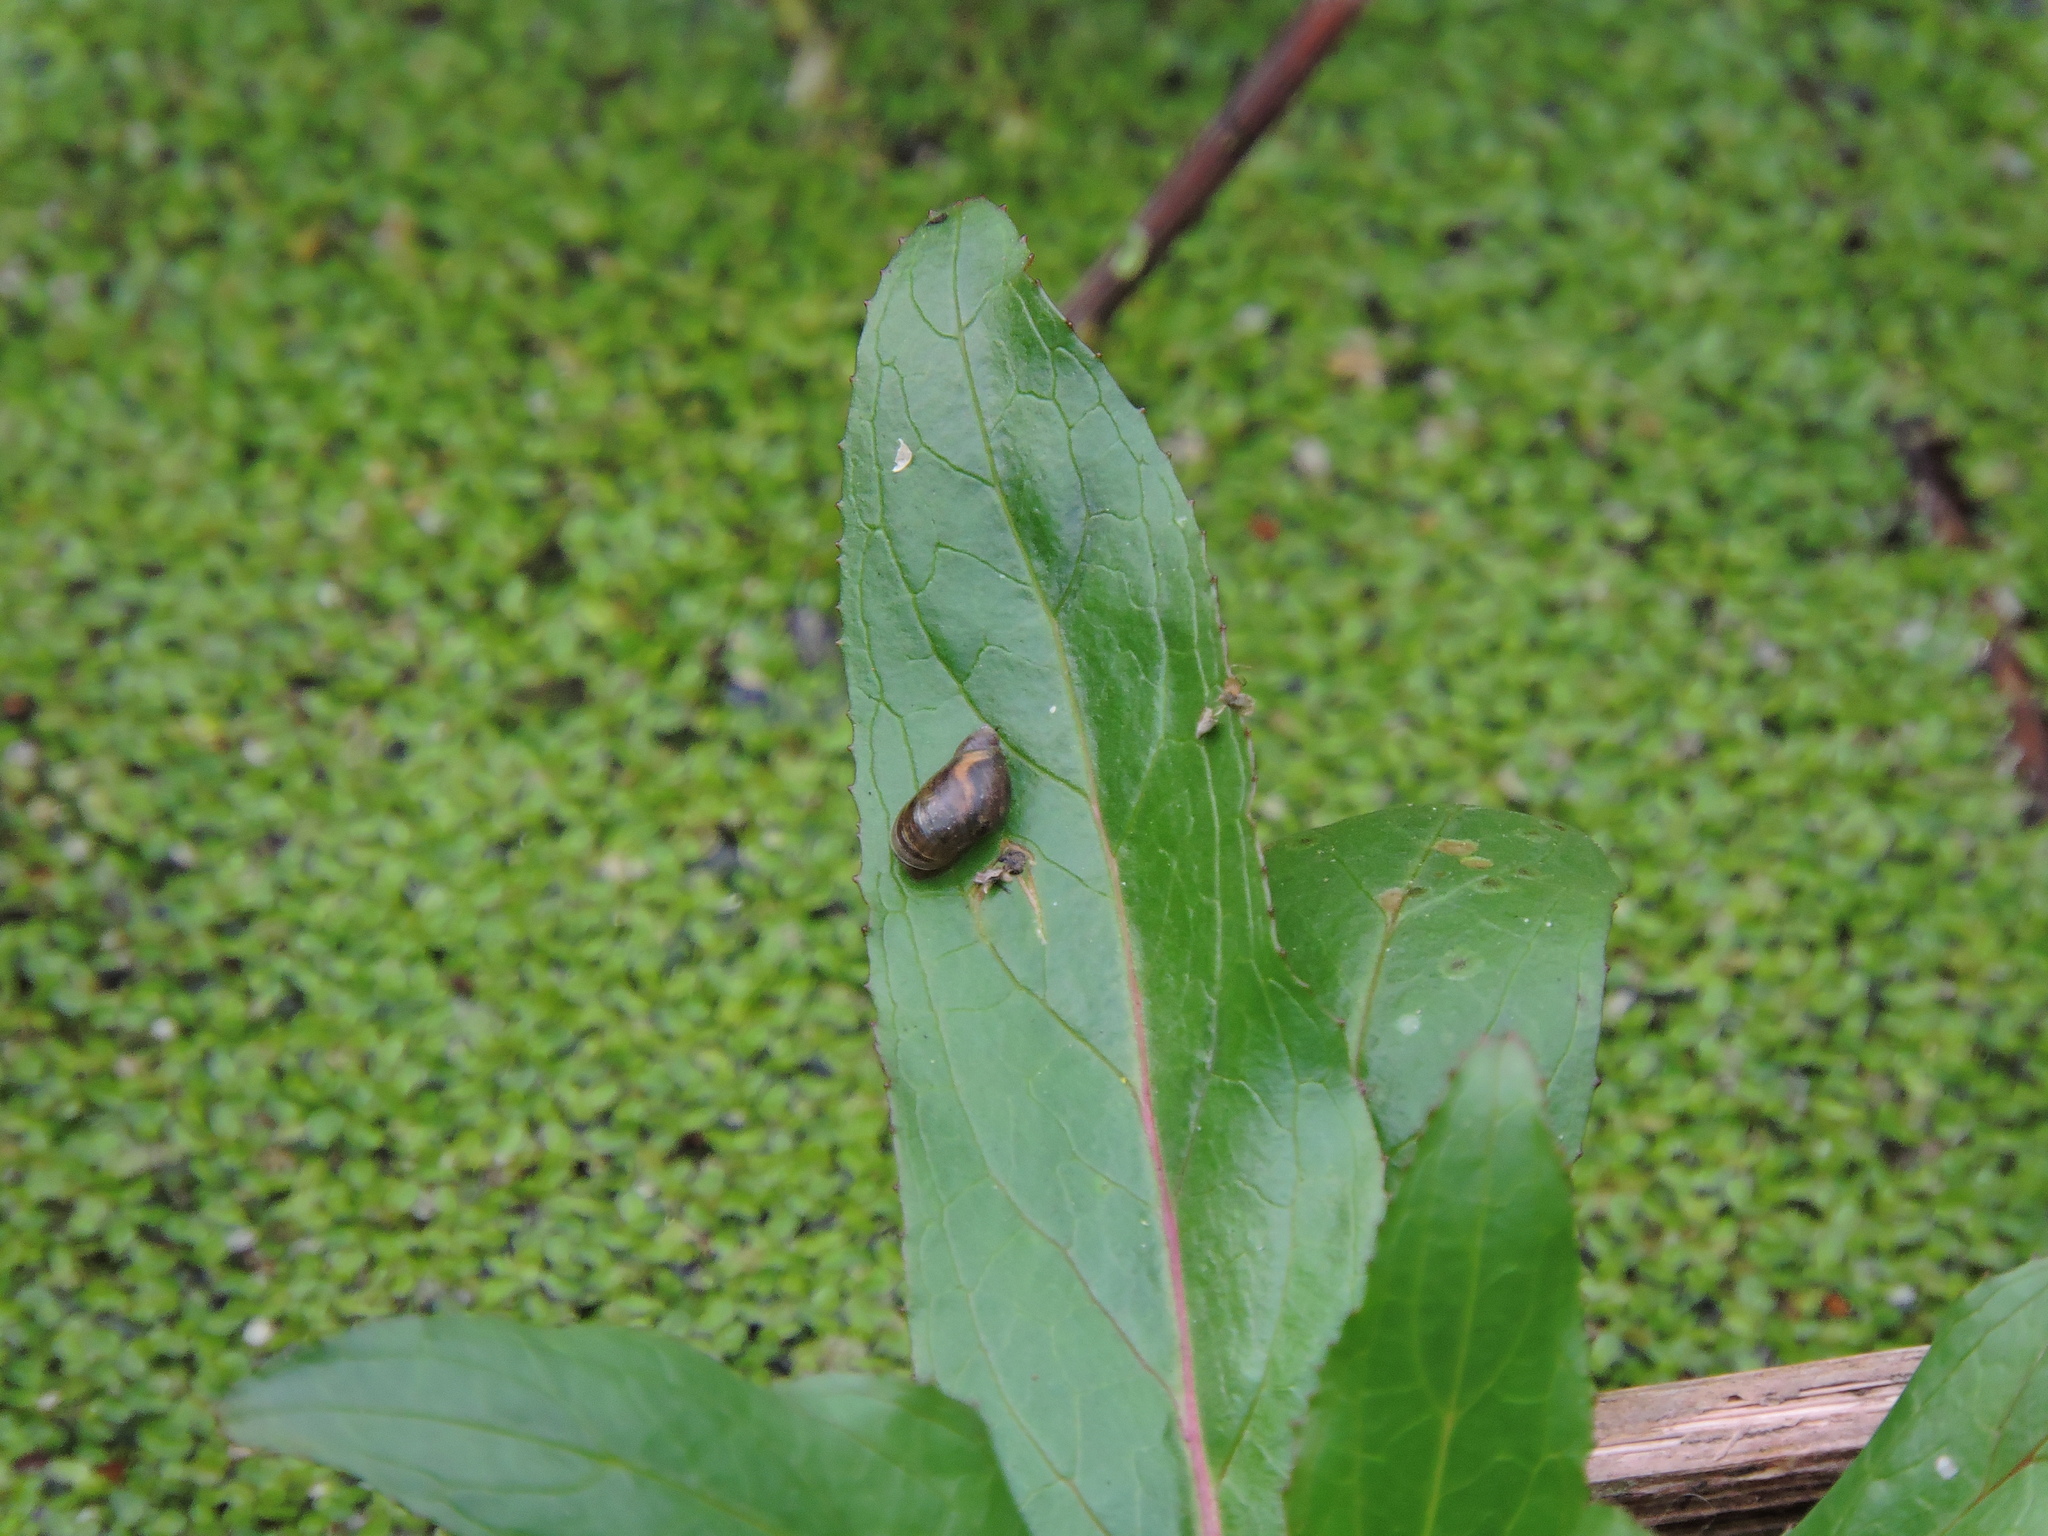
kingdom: Animalia
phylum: Mollusca
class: Gastropoda
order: Stylommatophora
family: Succineidae
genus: Succinea
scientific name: Succinea putris
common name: European ambersnail
